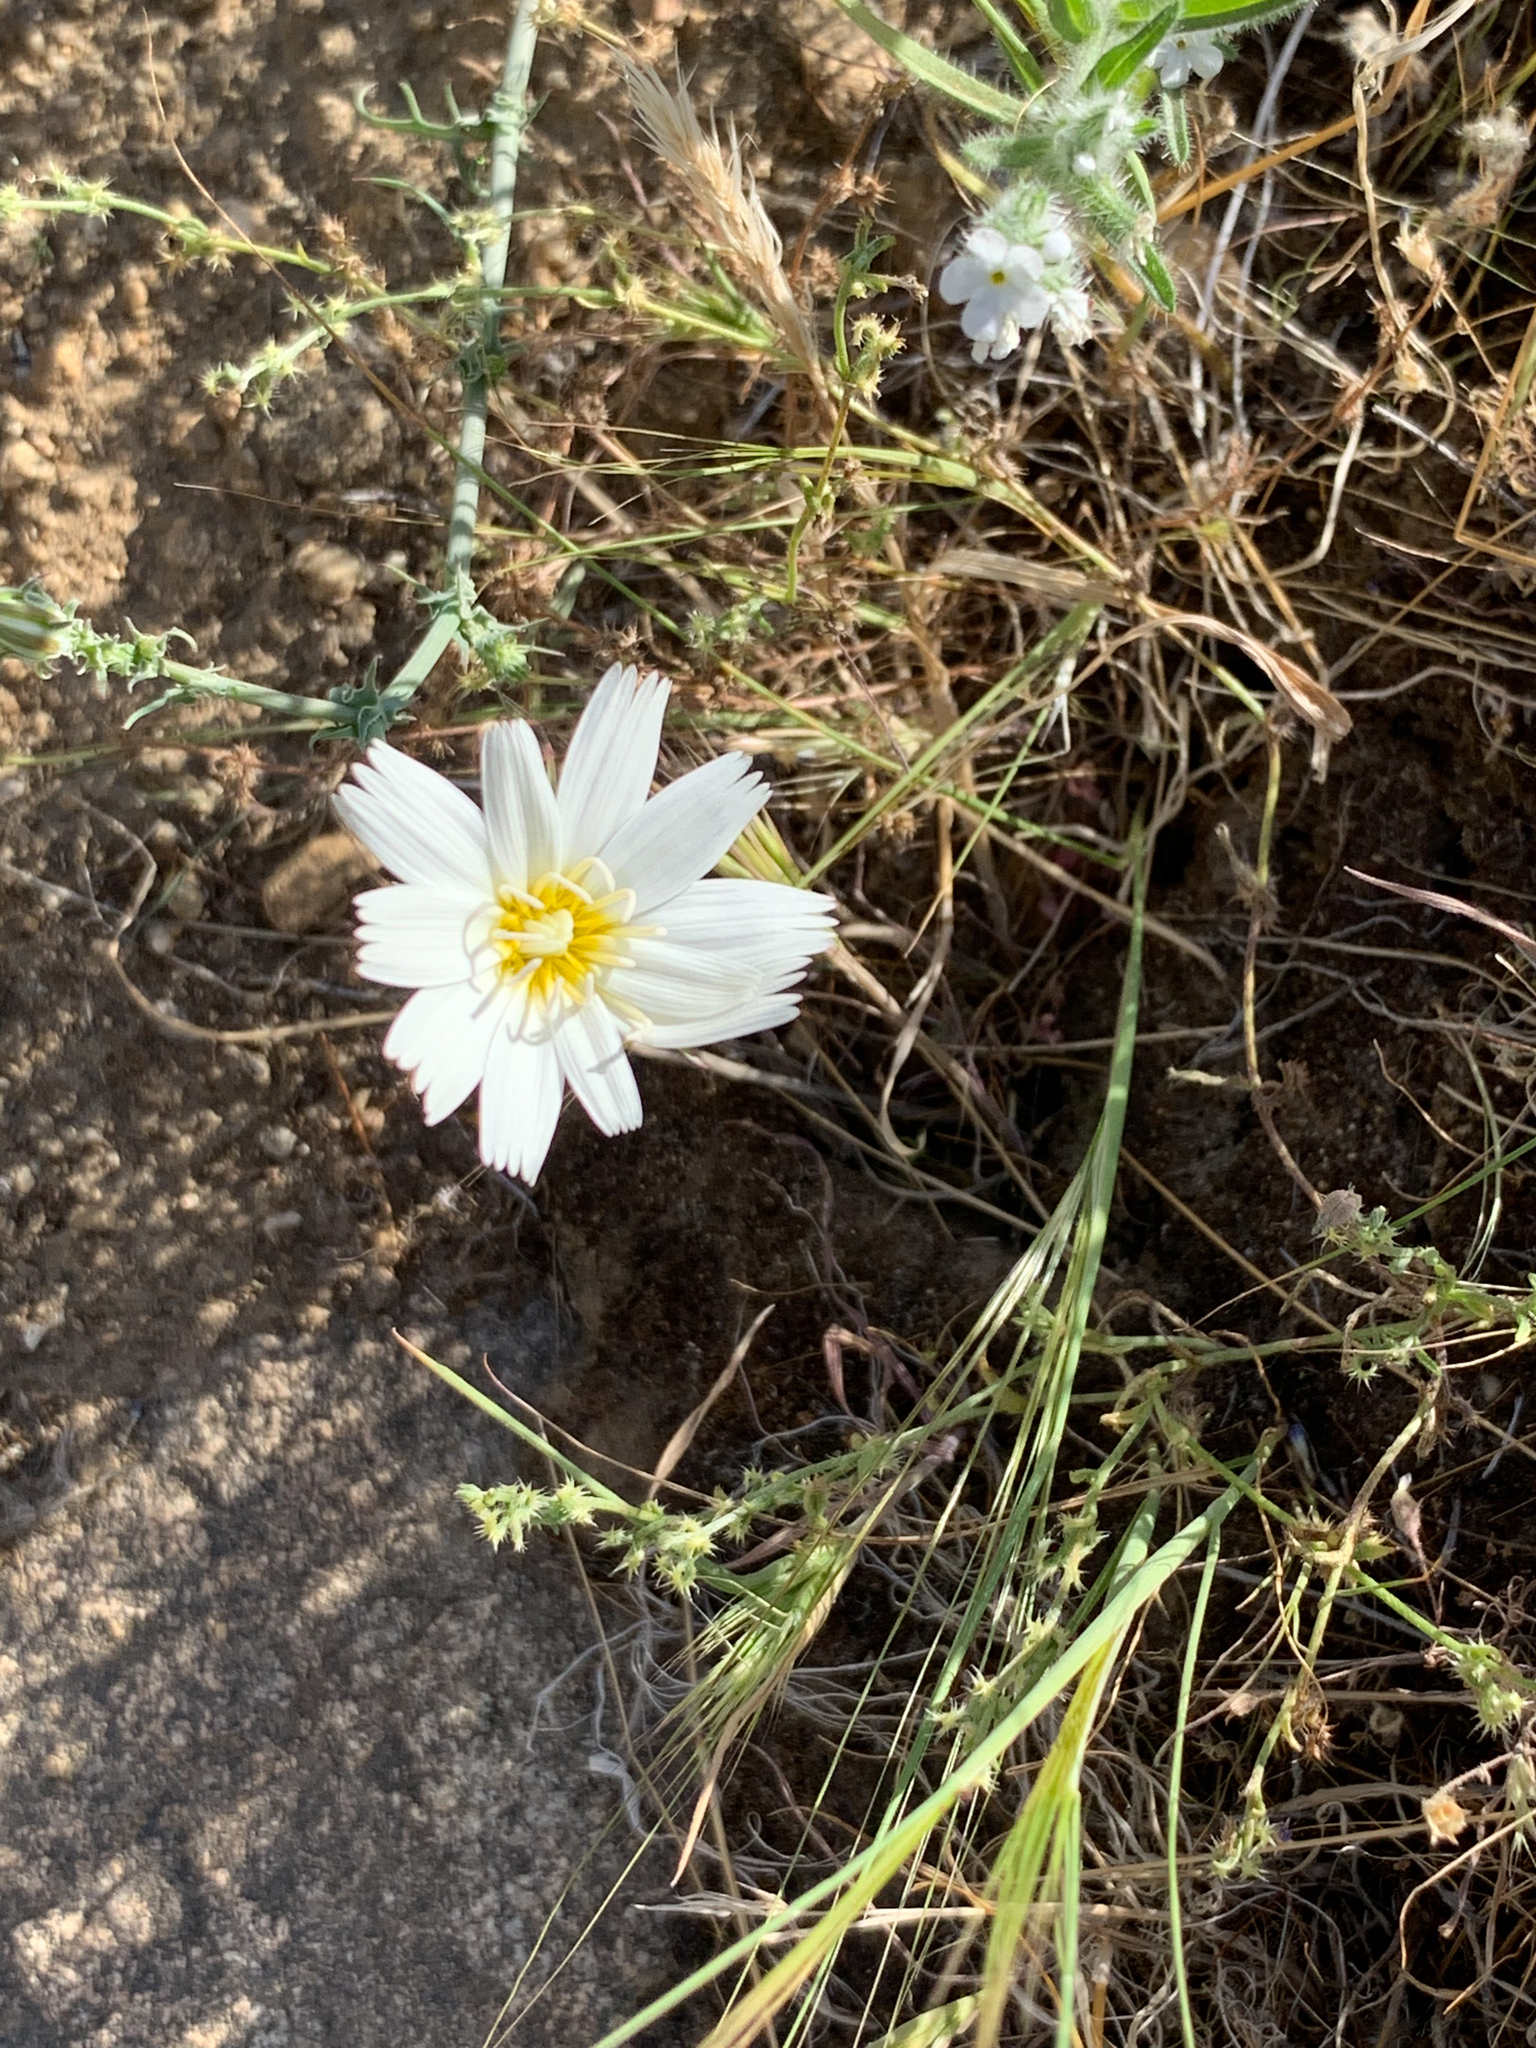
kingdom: Plantae
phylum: Tracheophyta
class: Magnoliopsida
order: Asterales
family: Asteraceae
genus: Rafinesquia
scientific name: Rafinesquia neomexicana
